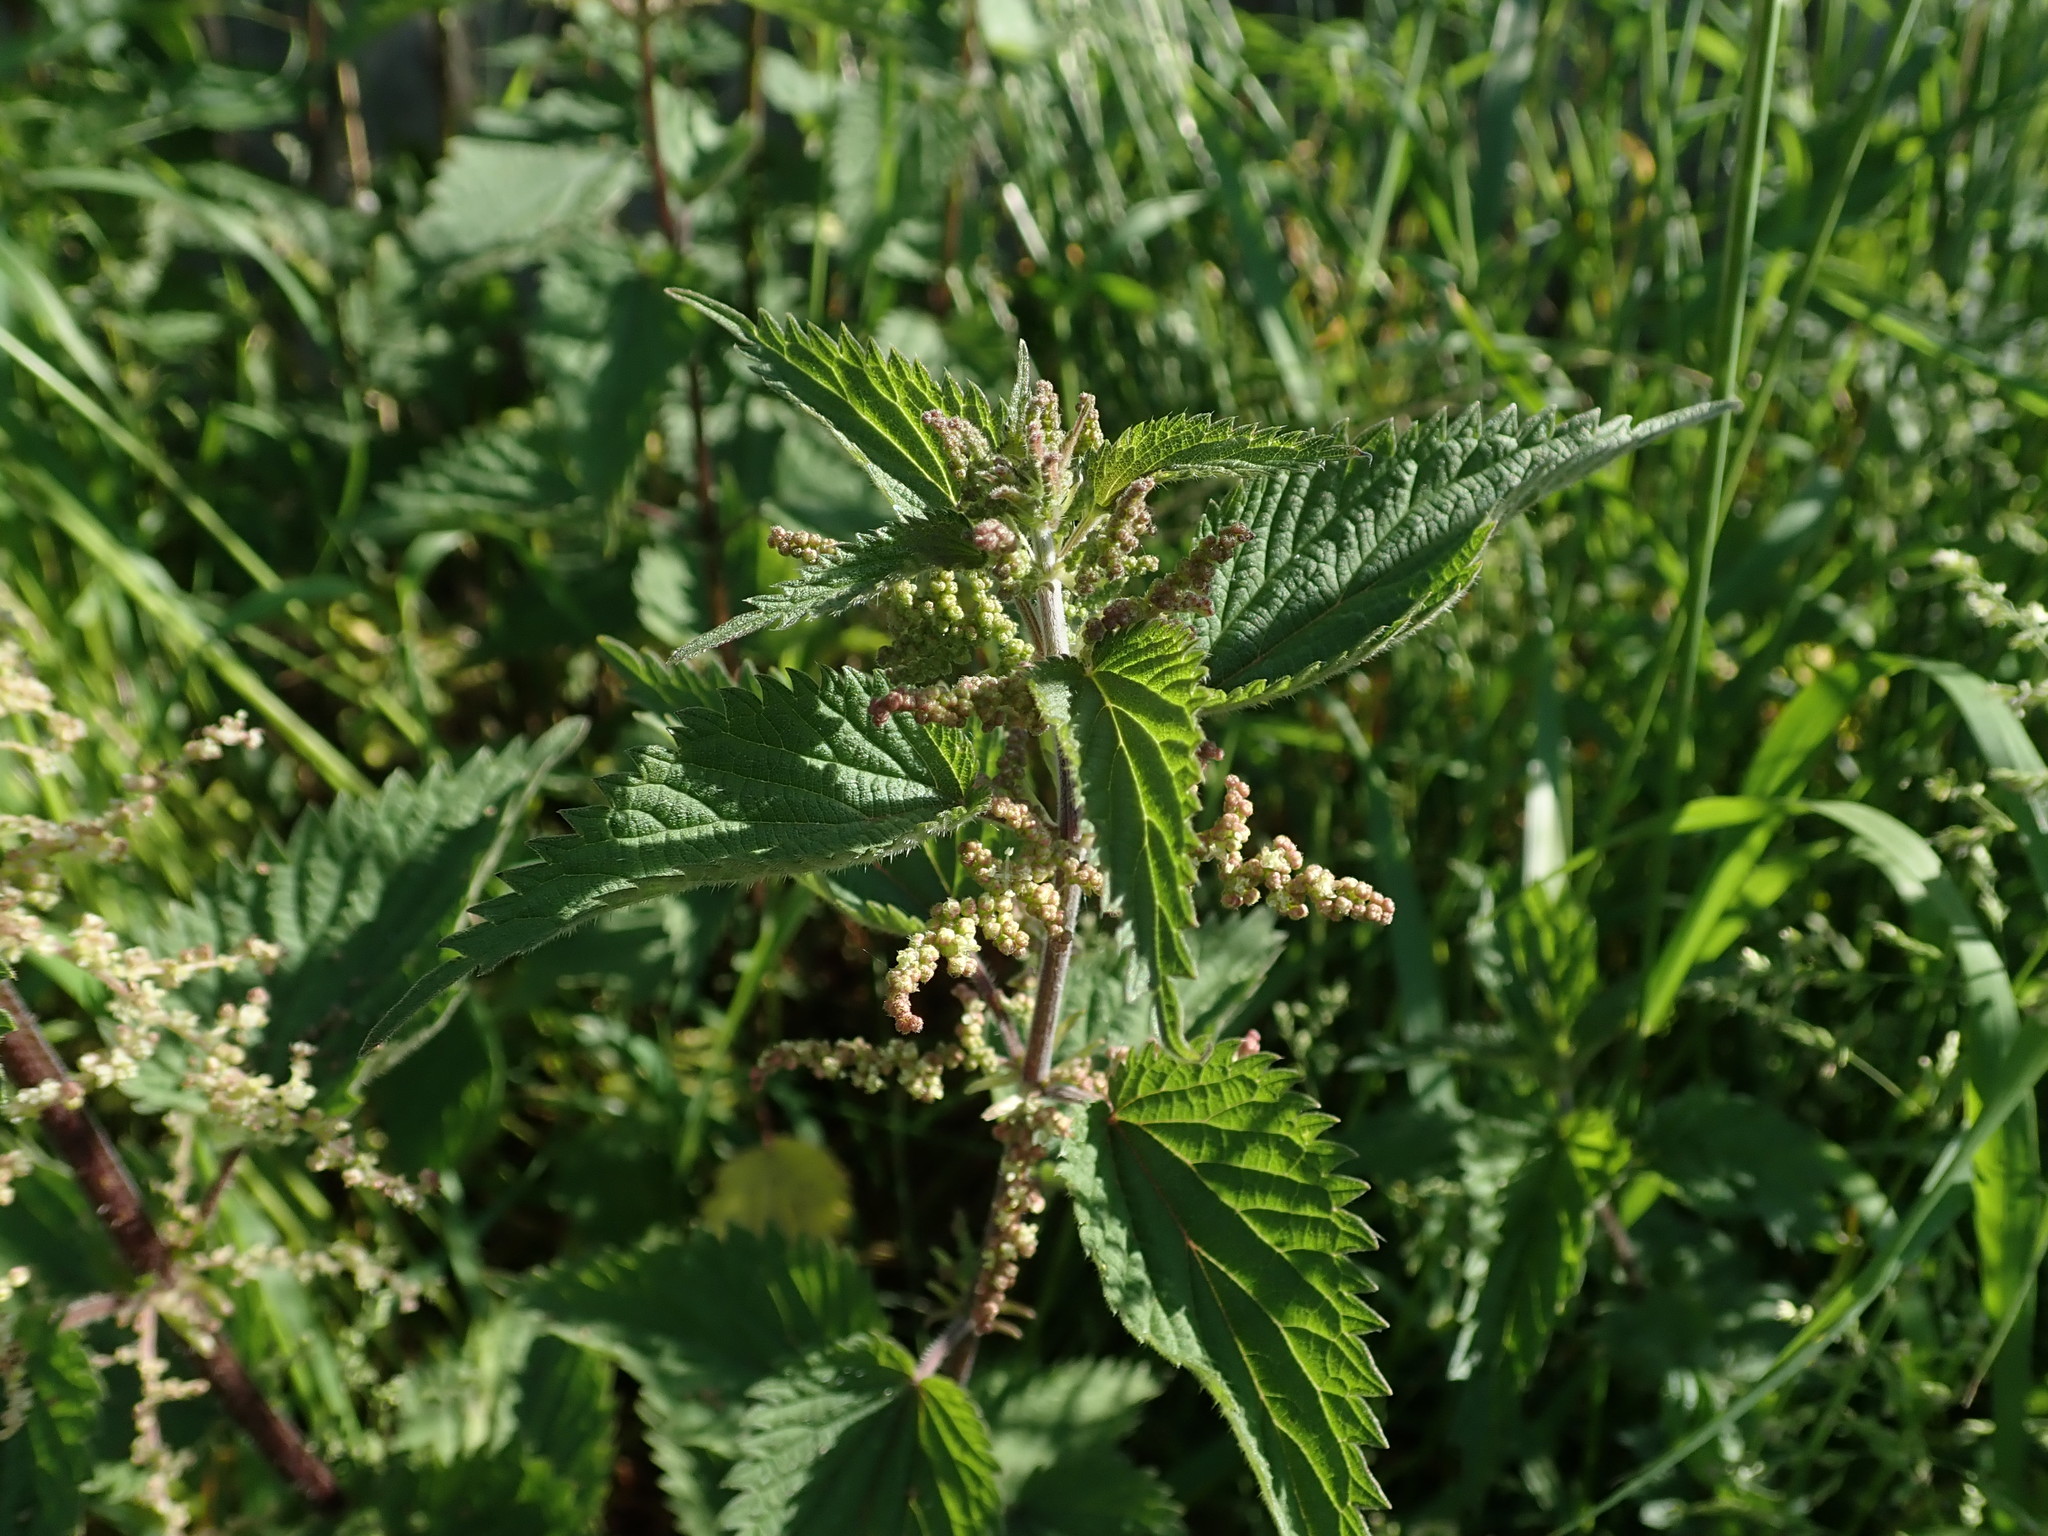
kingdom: Plantae
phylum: Tracheophyta
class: Magnoliopsida
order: Rosales
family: Urticaceae
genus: Urtica
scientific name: Urtica dioica
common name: Common nettle
